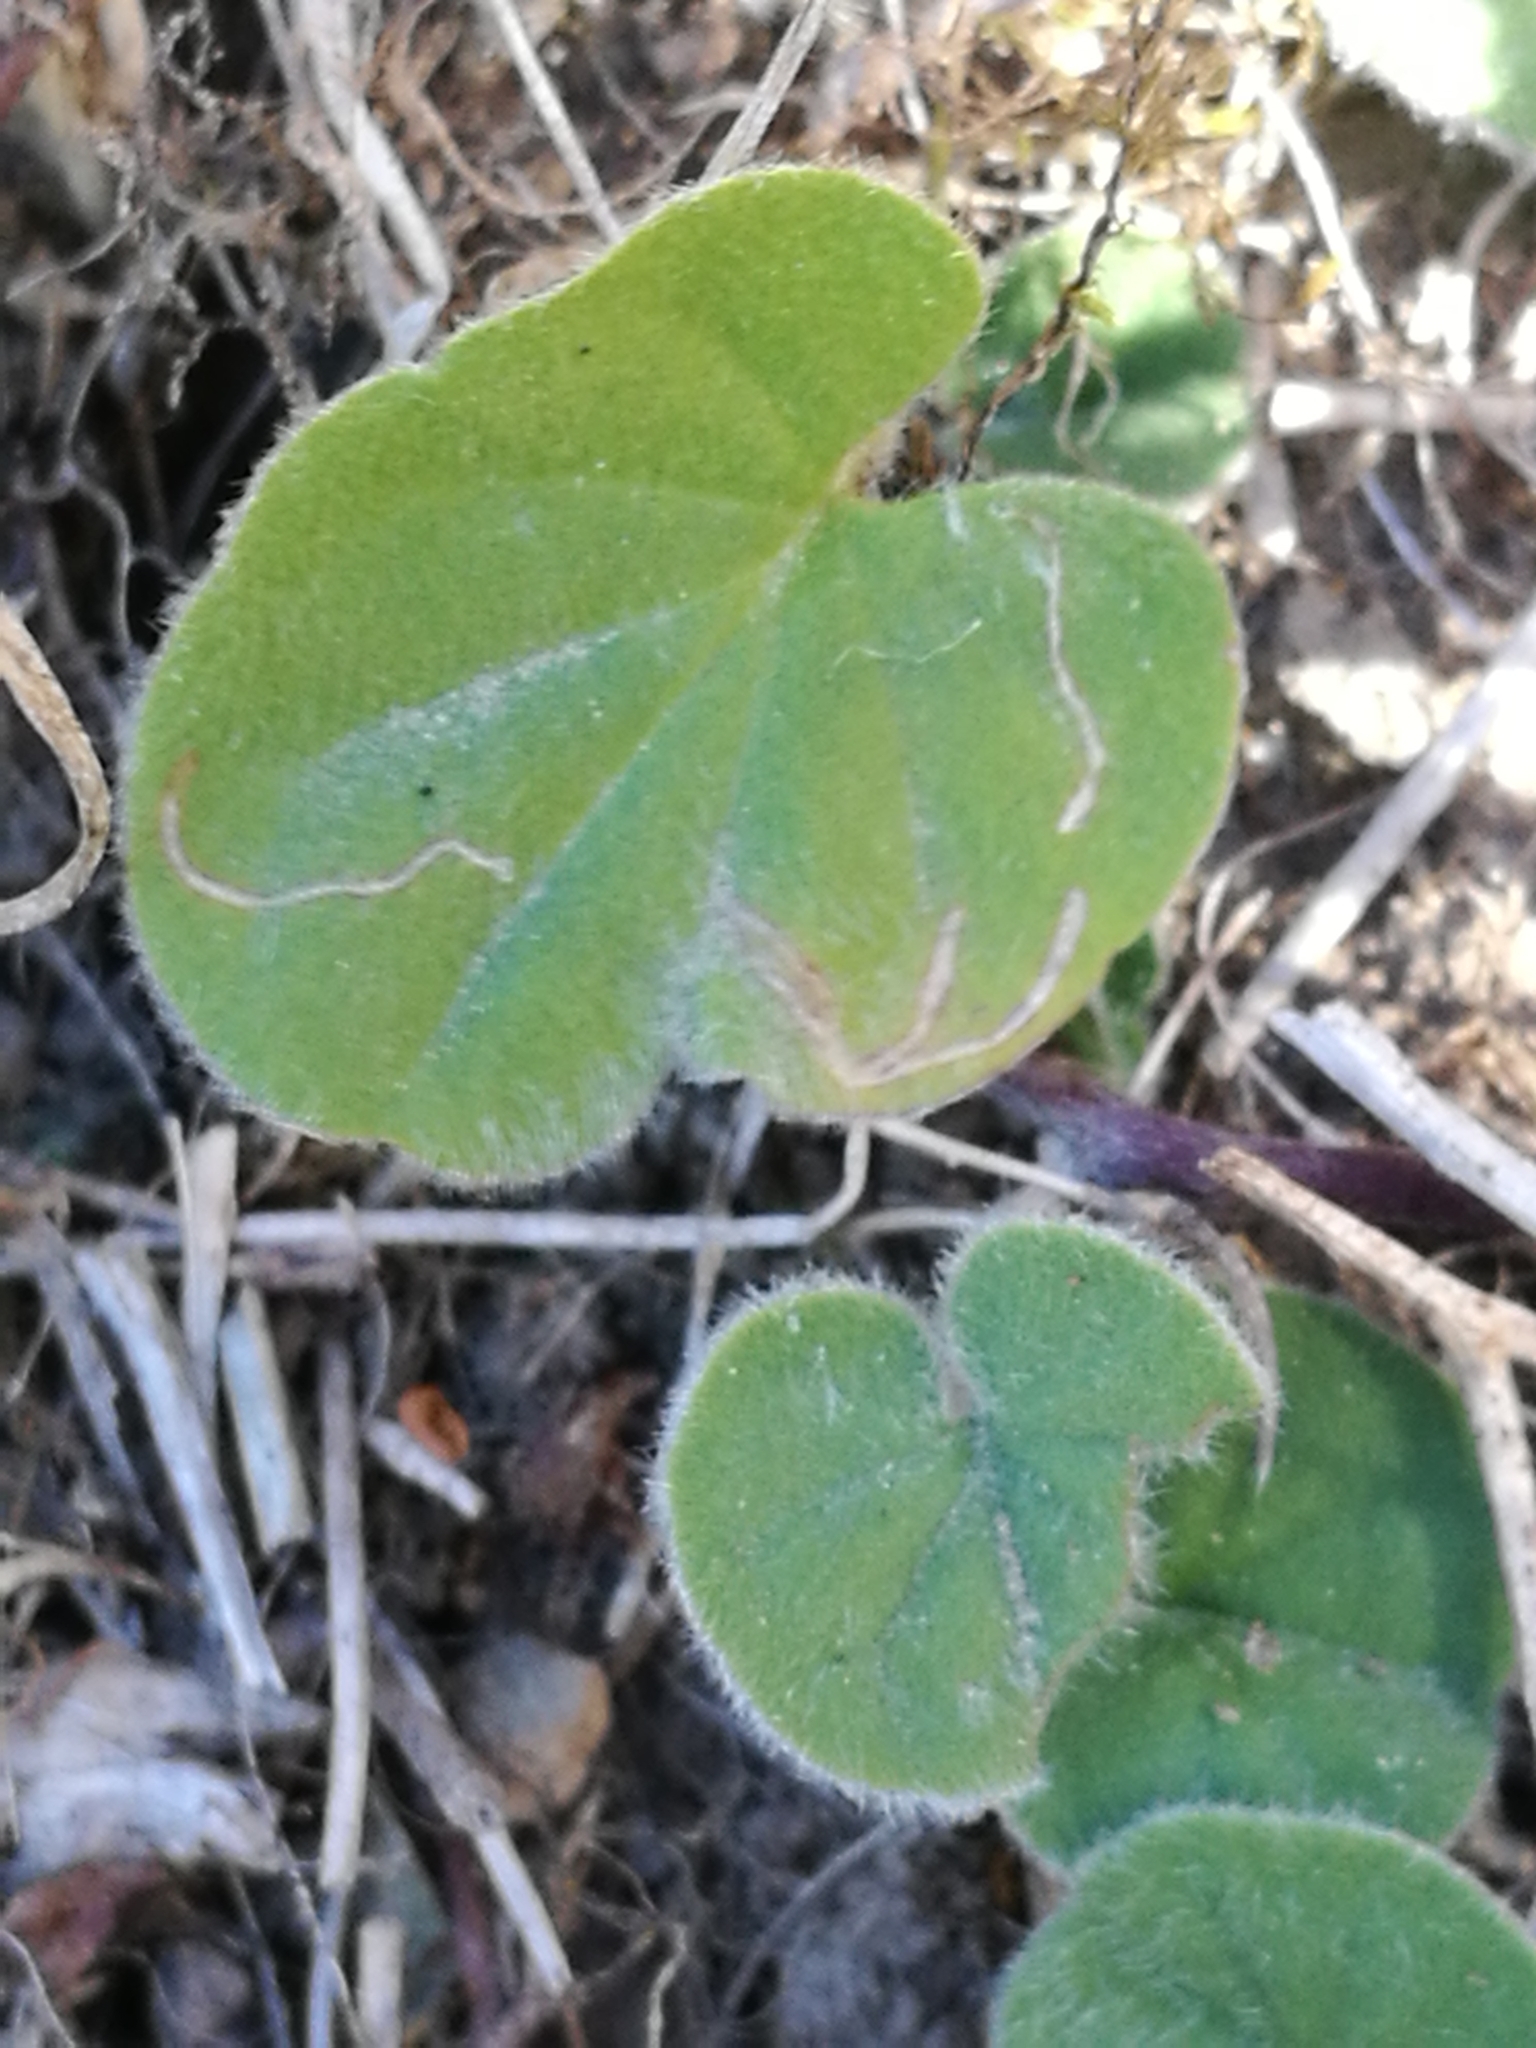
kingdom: Plantae
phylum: Tracheophyta
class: Magnoliopsida
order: Solanales
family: Convolvulaceae
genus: Dichondra
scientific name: Dichondra repens
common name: Kidneyweed
